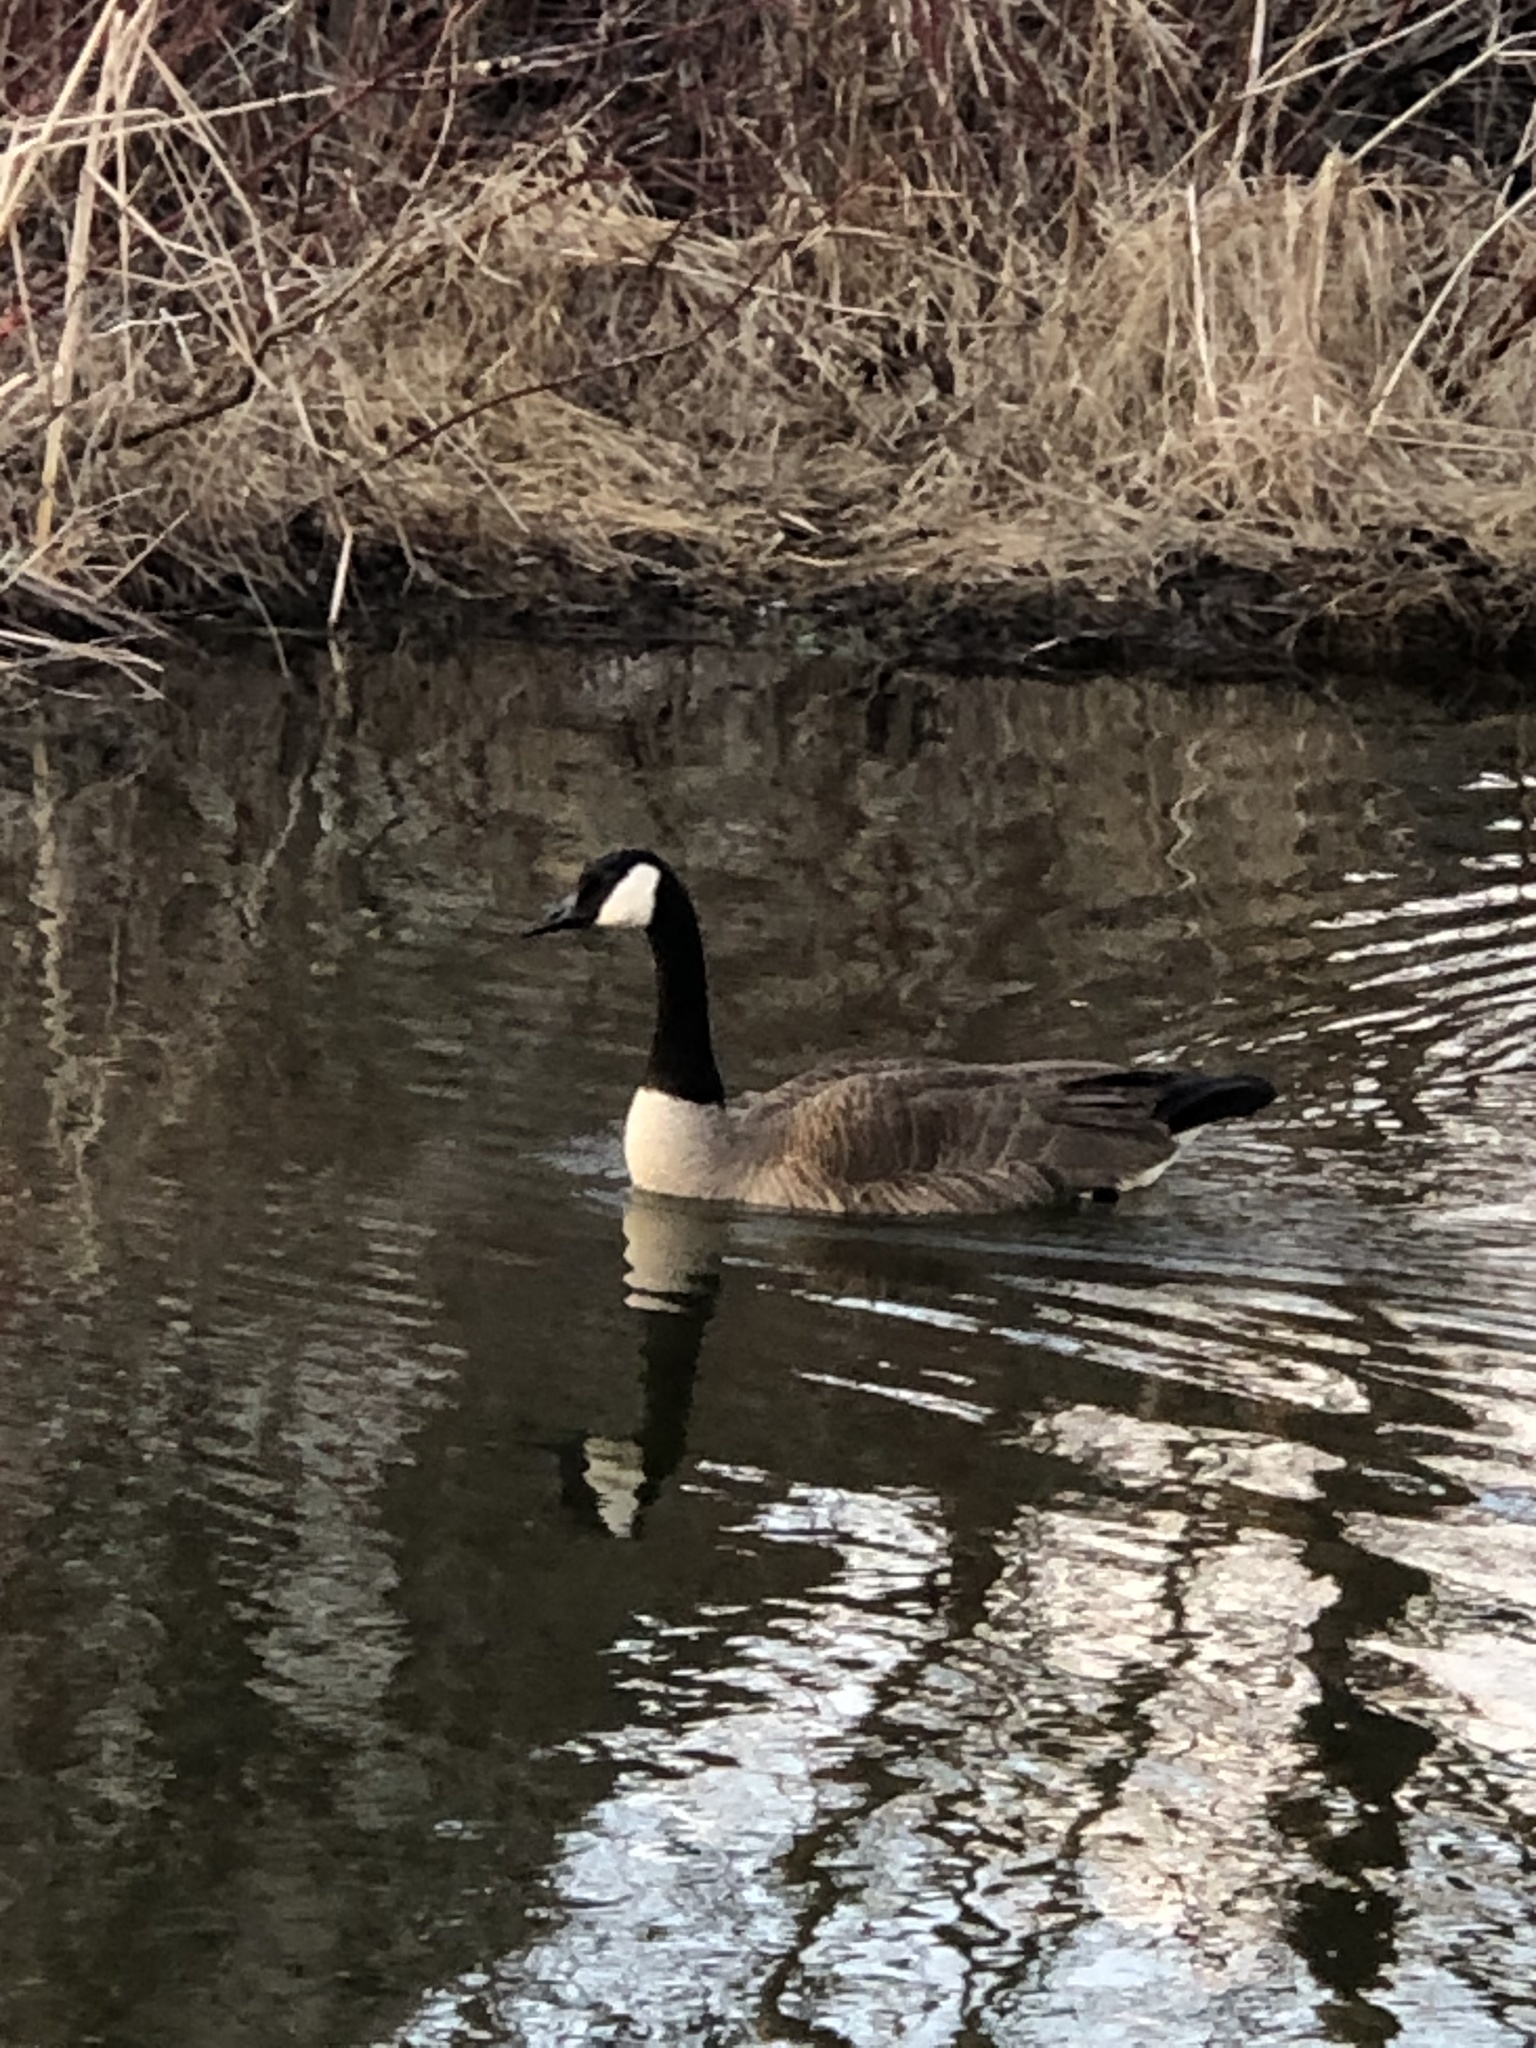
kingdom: Animalia
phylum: Chordata
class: Aves
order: Anseriformes
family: Anatidae
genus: Branta
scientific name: Branta canadensis
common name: Canada goose
